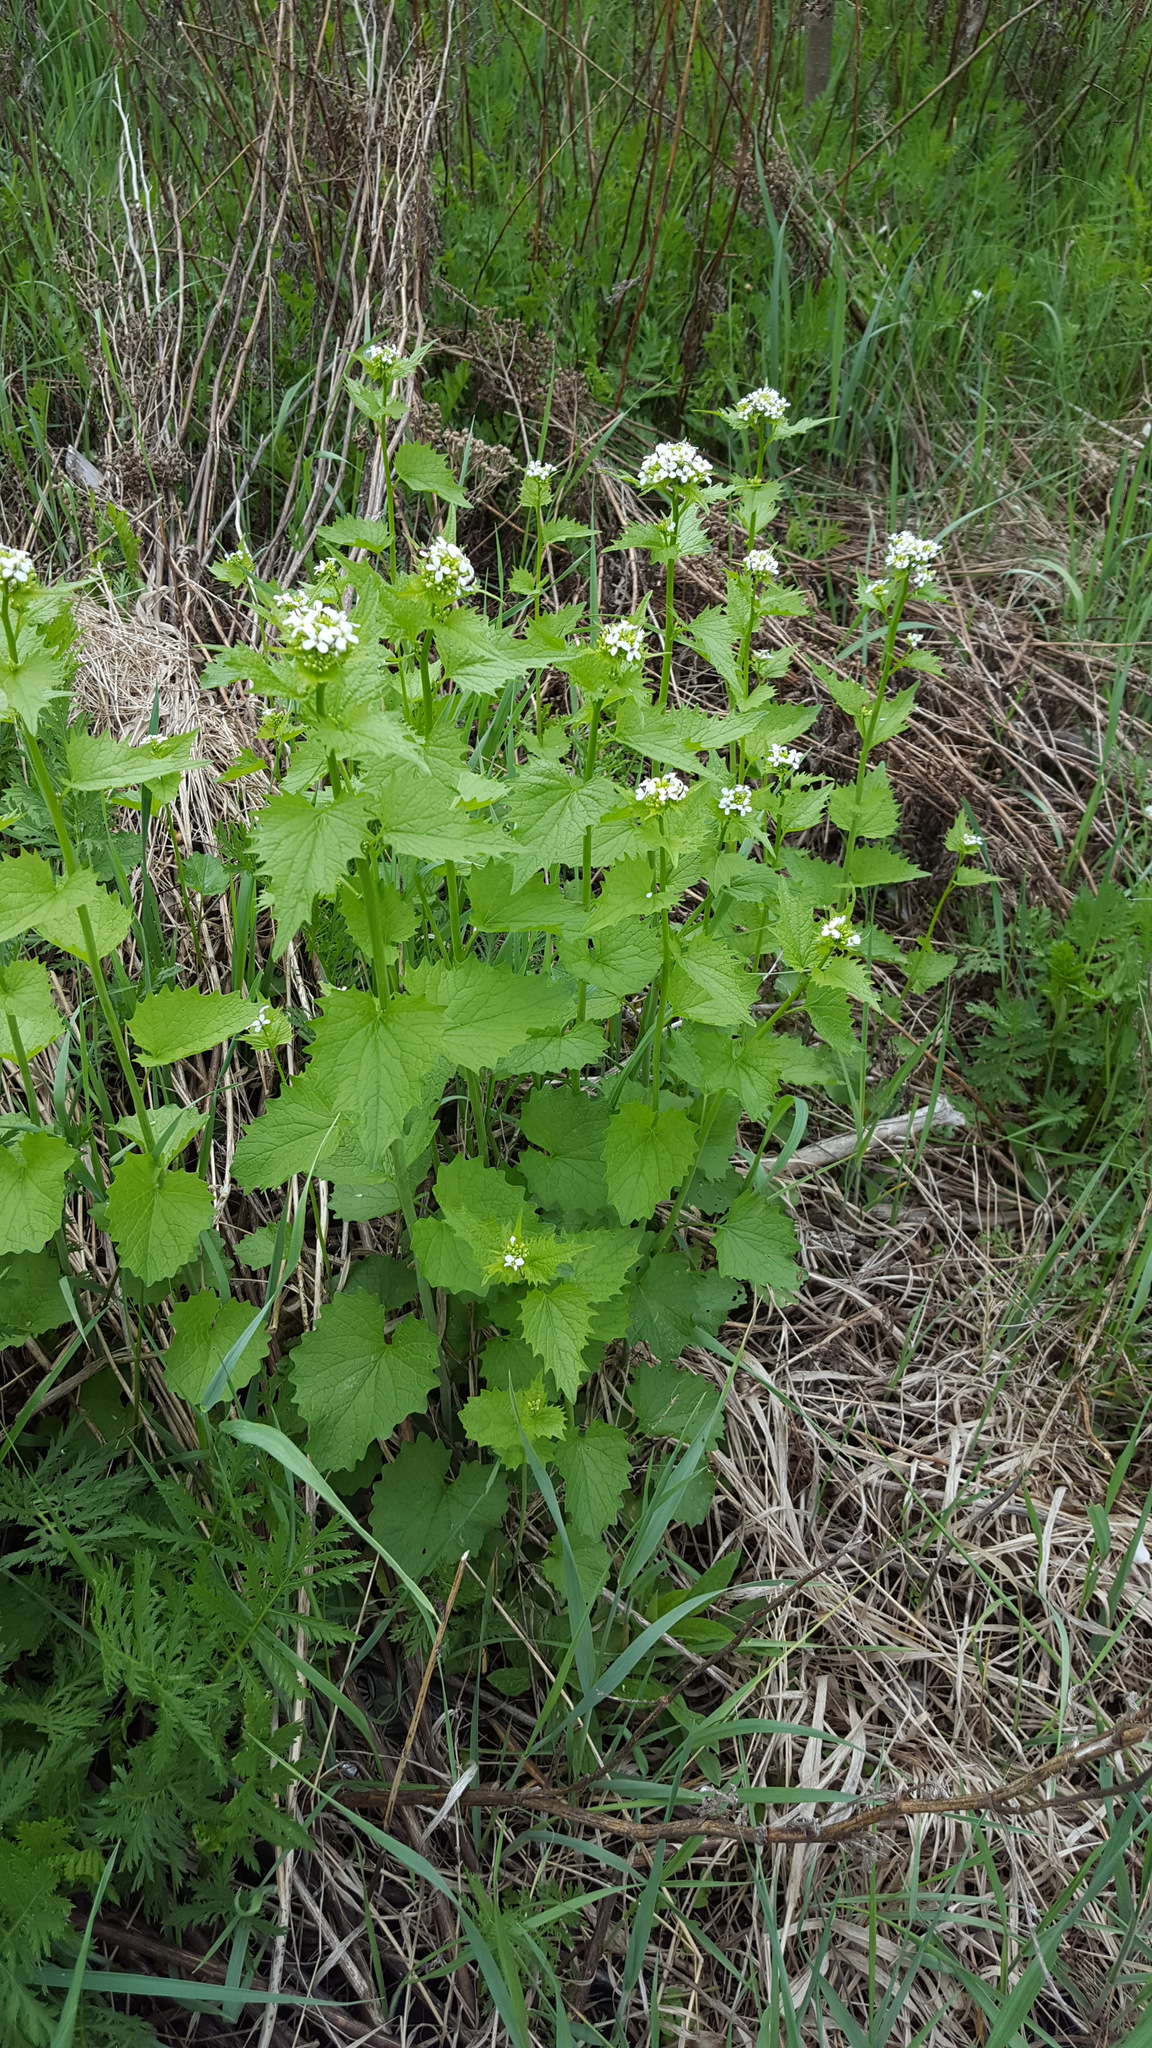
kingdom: Plantae
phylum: Tracheophyta
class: Magnoliopsida
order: Brassicales
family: Brassicaceae
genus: Alliaria
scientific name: Alliaria petiolata
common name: Garlic mustard
